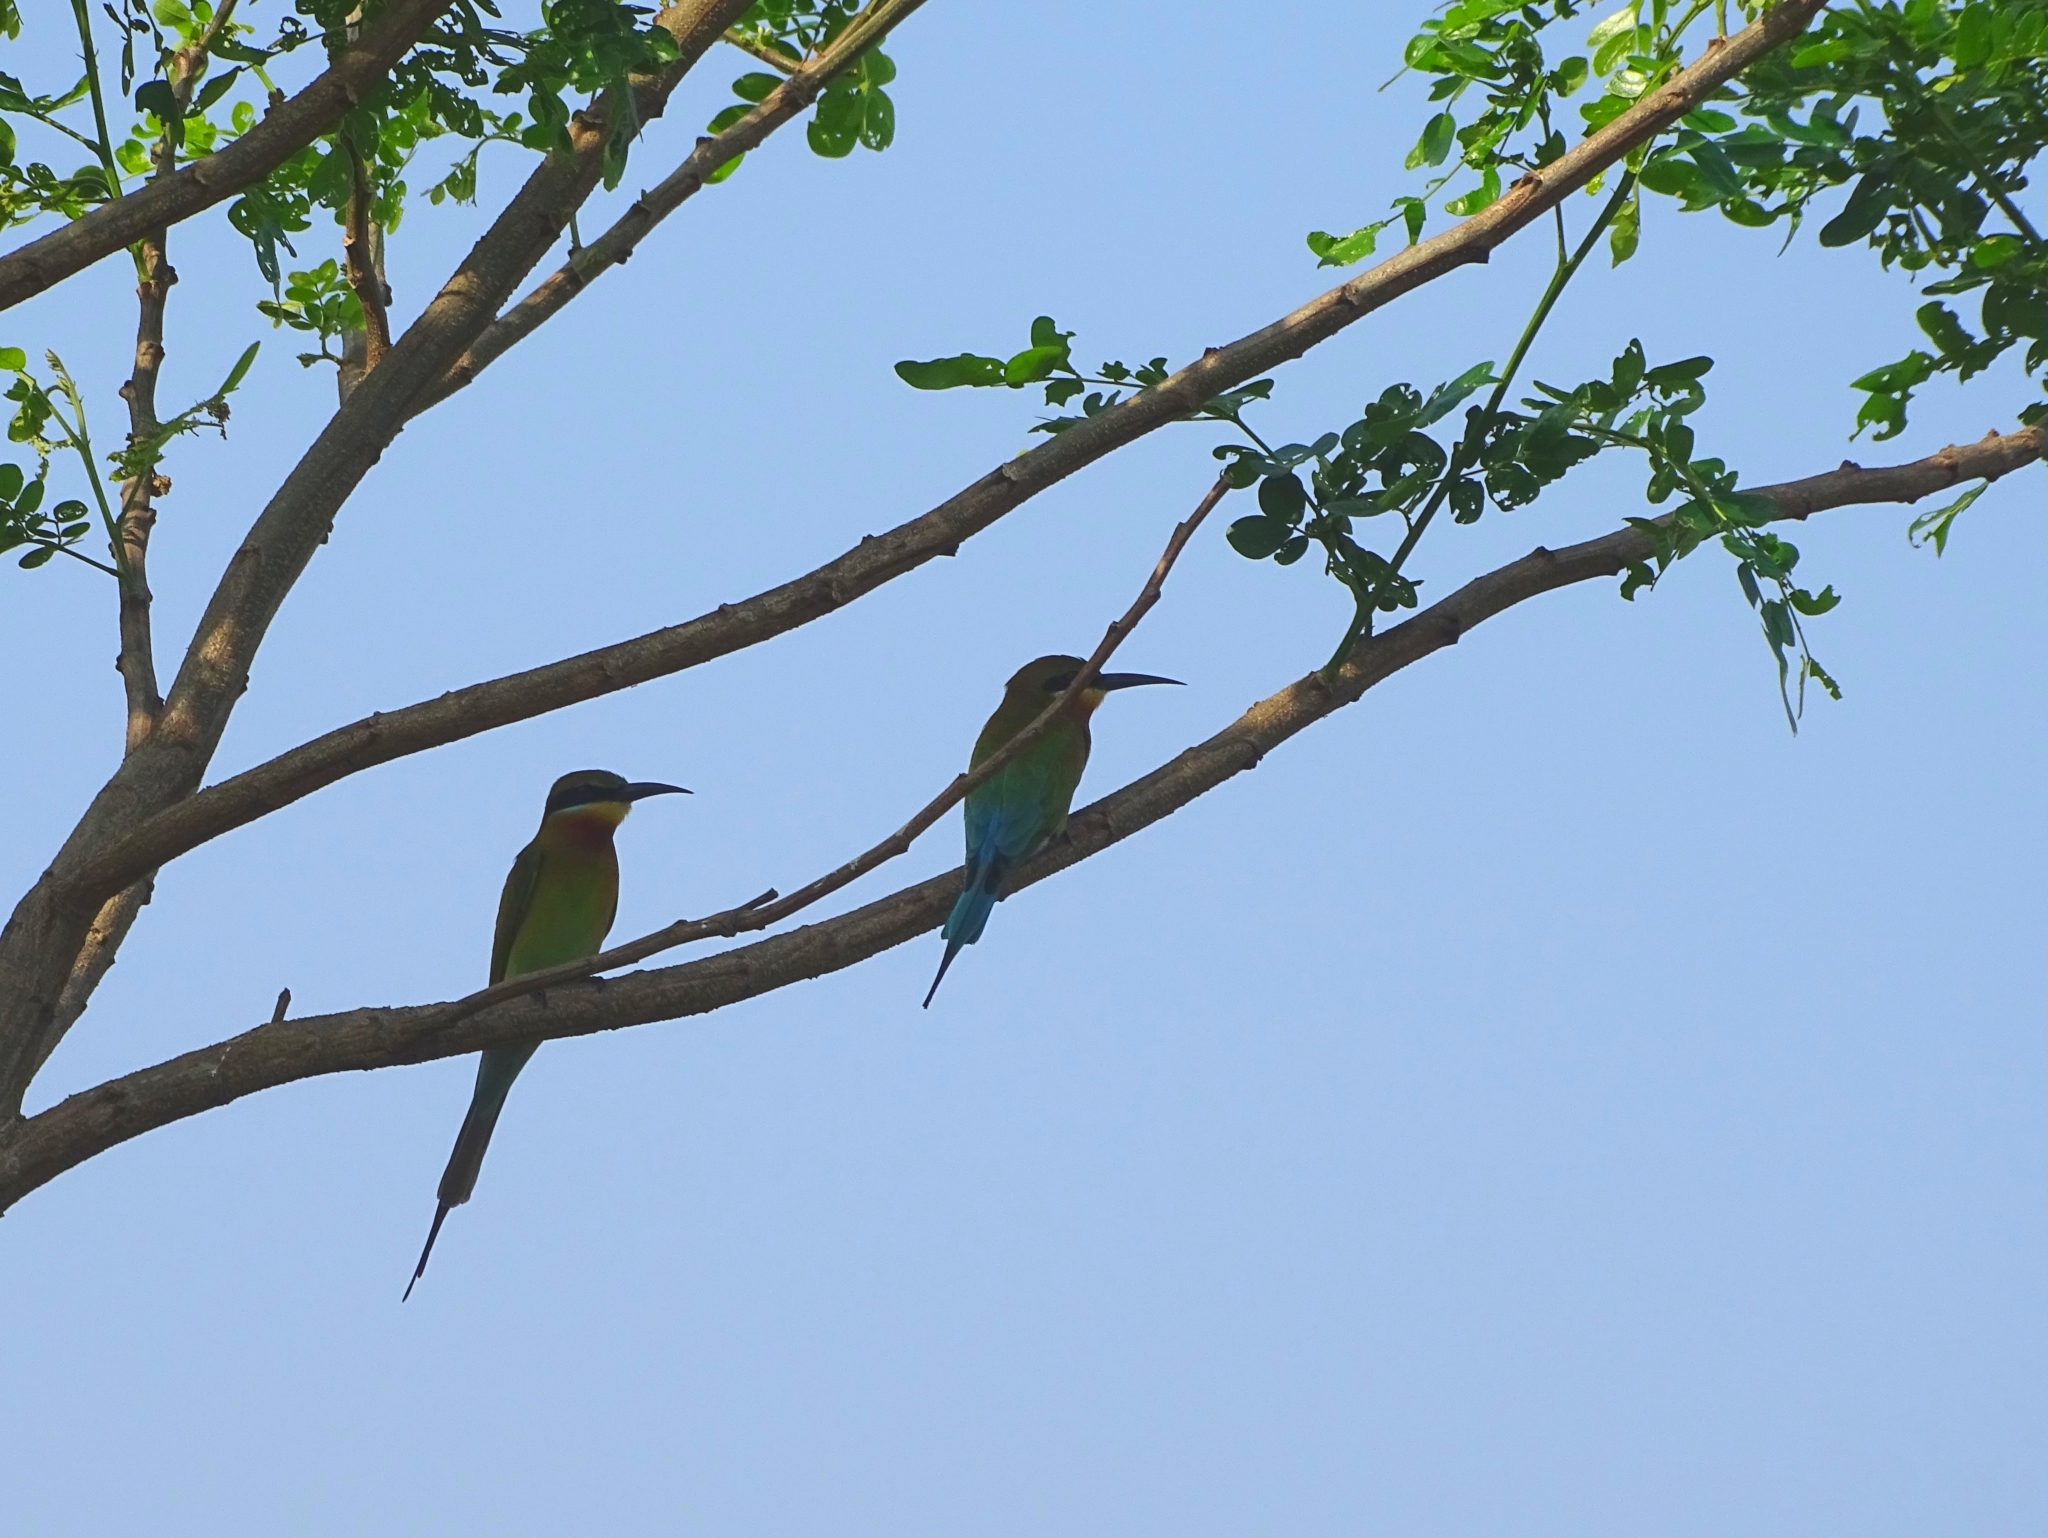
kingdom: Animalia
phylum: Chordata
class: Aves
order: Coraciiformes
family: Meropidae
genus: Merops
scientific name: Merops philippinus
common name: Blue-tailed bee-eater
